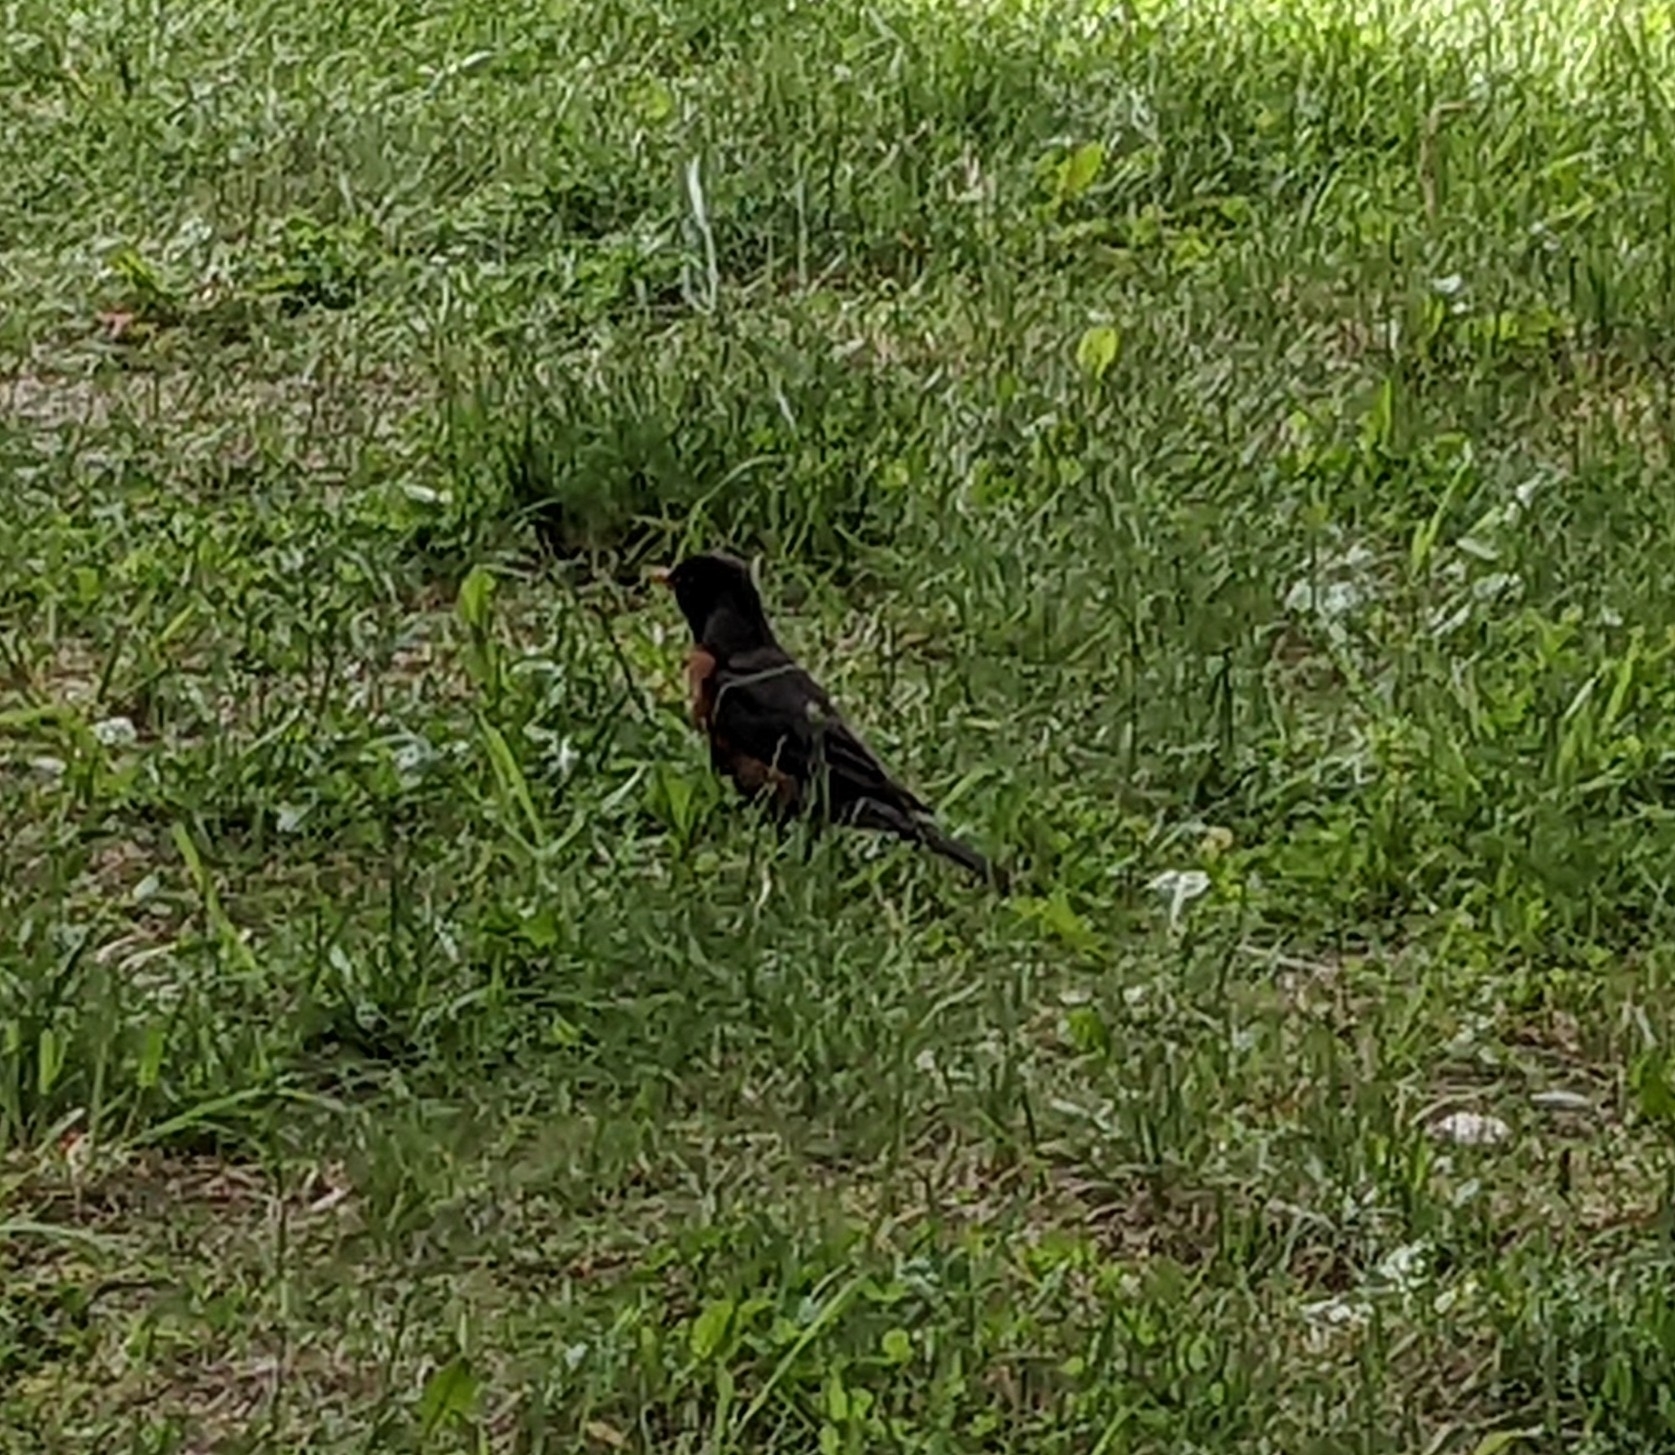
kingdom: Animalia
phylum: Chordata
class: Aves
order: Passeriformes
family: Turdidae
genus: Turdus
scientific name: Turdus migratorius
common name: American robin
